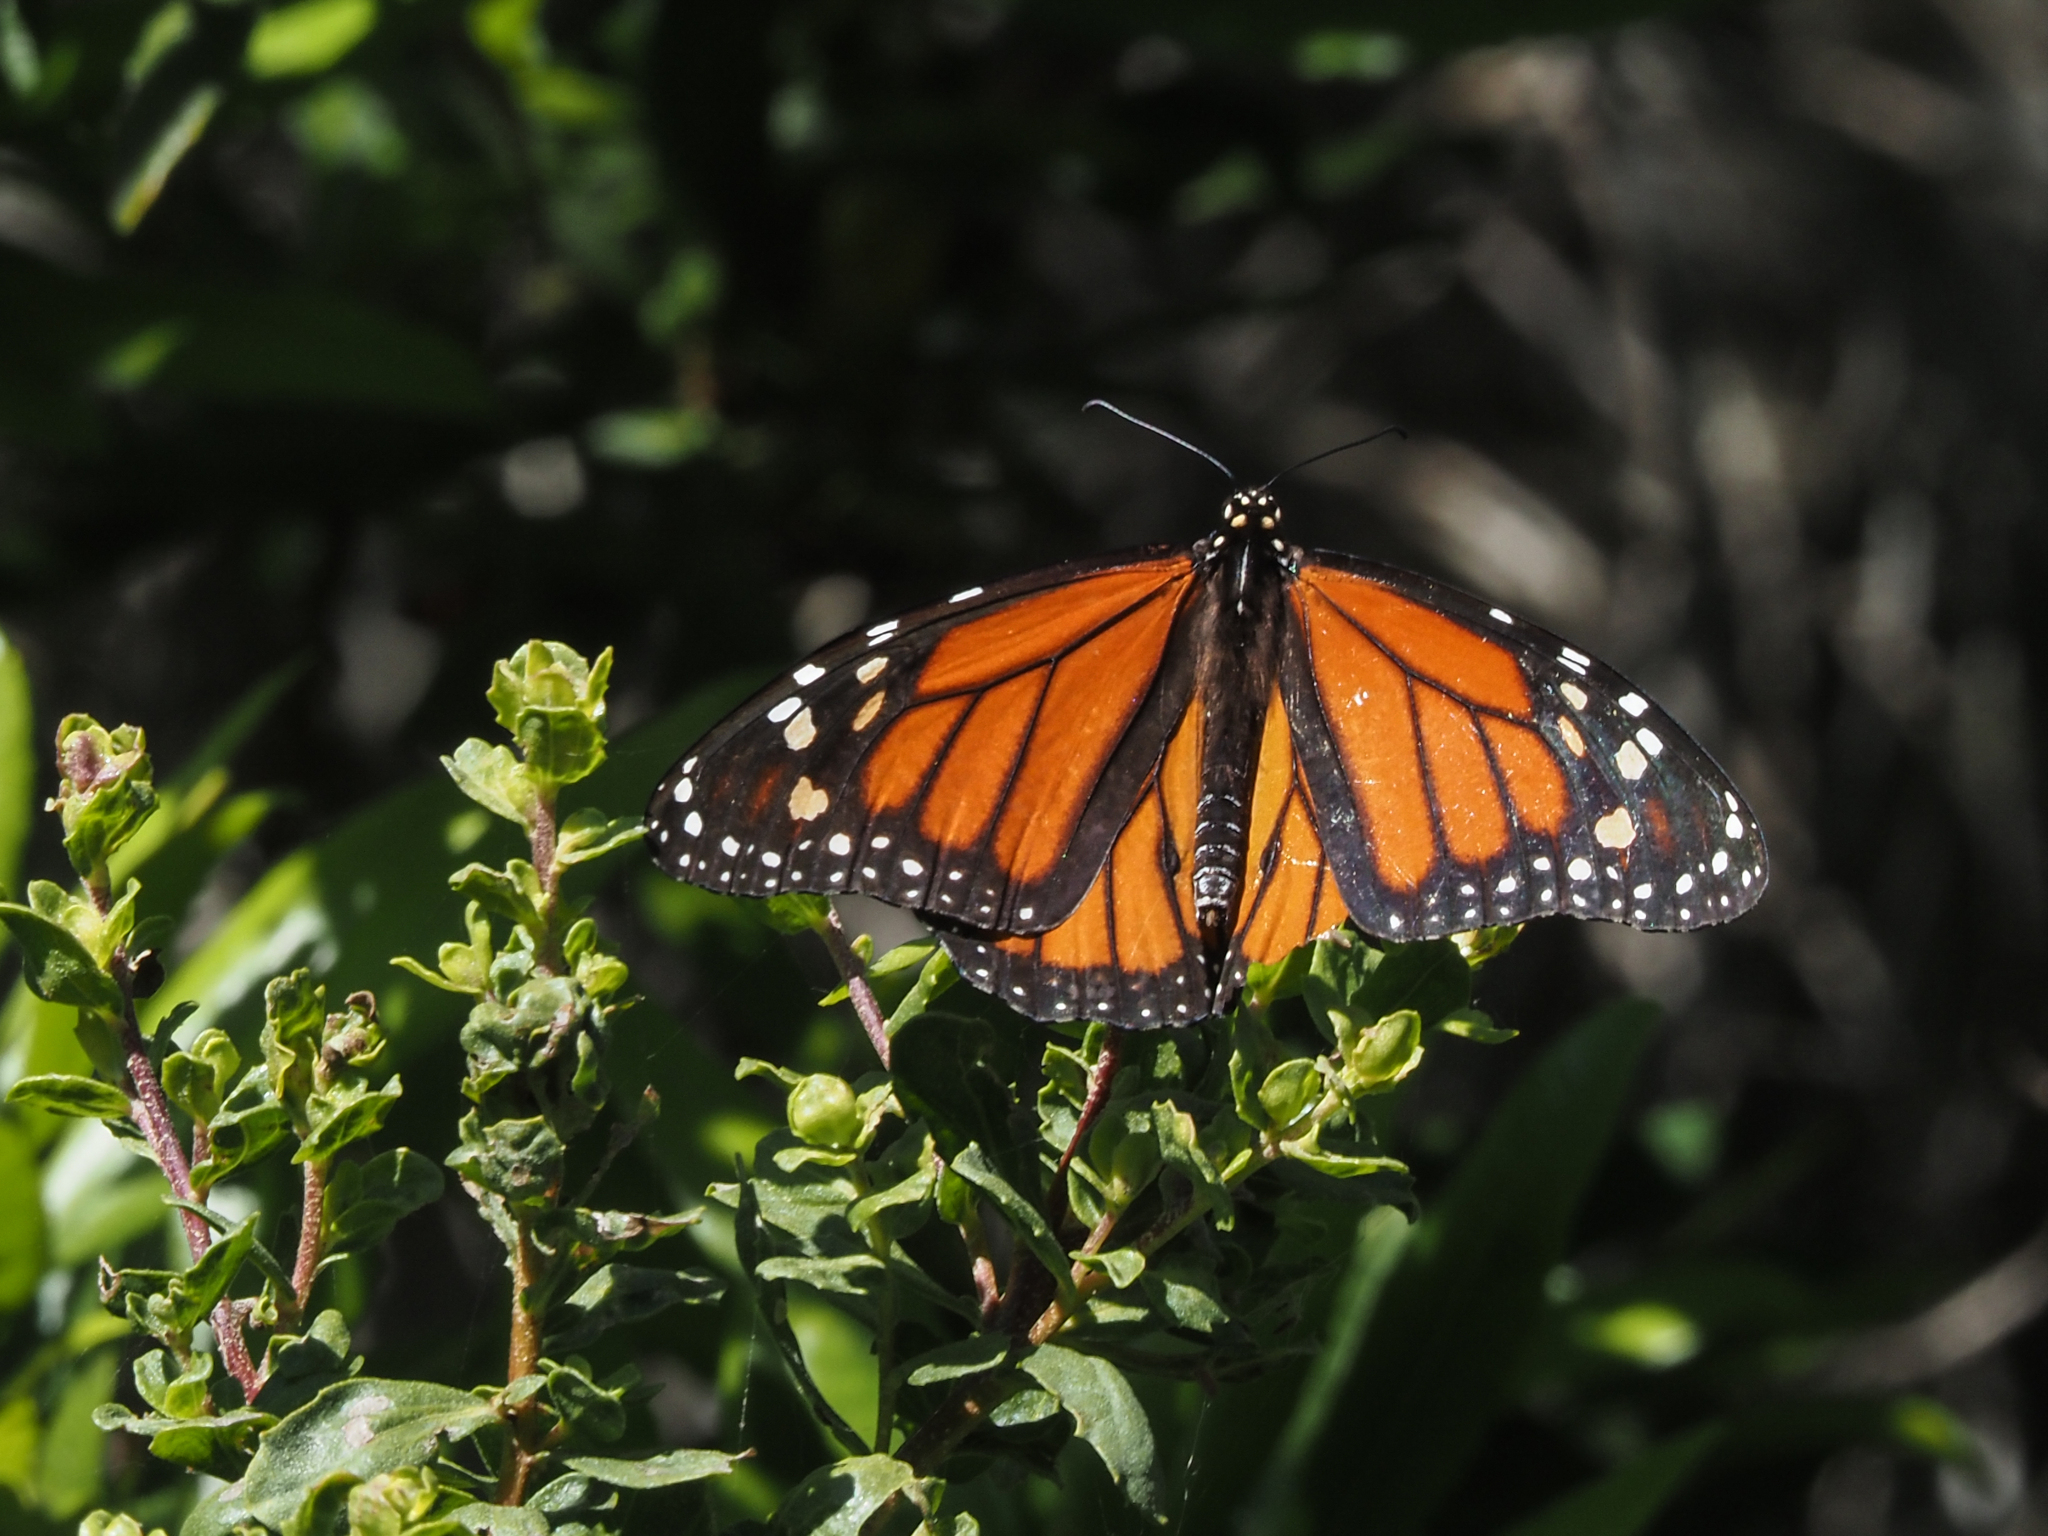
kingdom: Animalia
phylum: Arthropoda
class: Insecta
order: Lepidoptera
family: Nymphalidae
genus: Danaus
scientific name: Danaus plexippus
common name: Monarch
